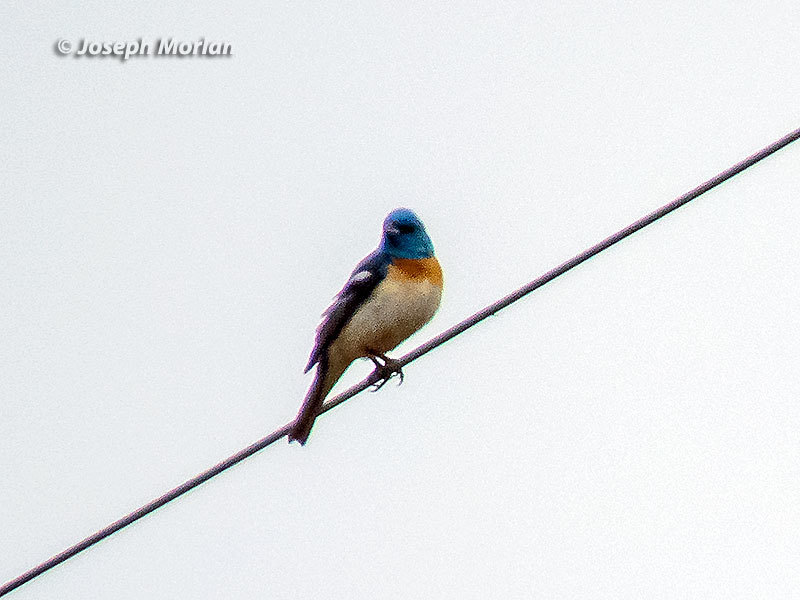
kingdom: Animalia
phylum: Chordata
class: Aves
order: Passeriformes
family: Cardinalidae
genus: Passerina
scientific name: Passerina amoena
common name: Lazuli bunting
